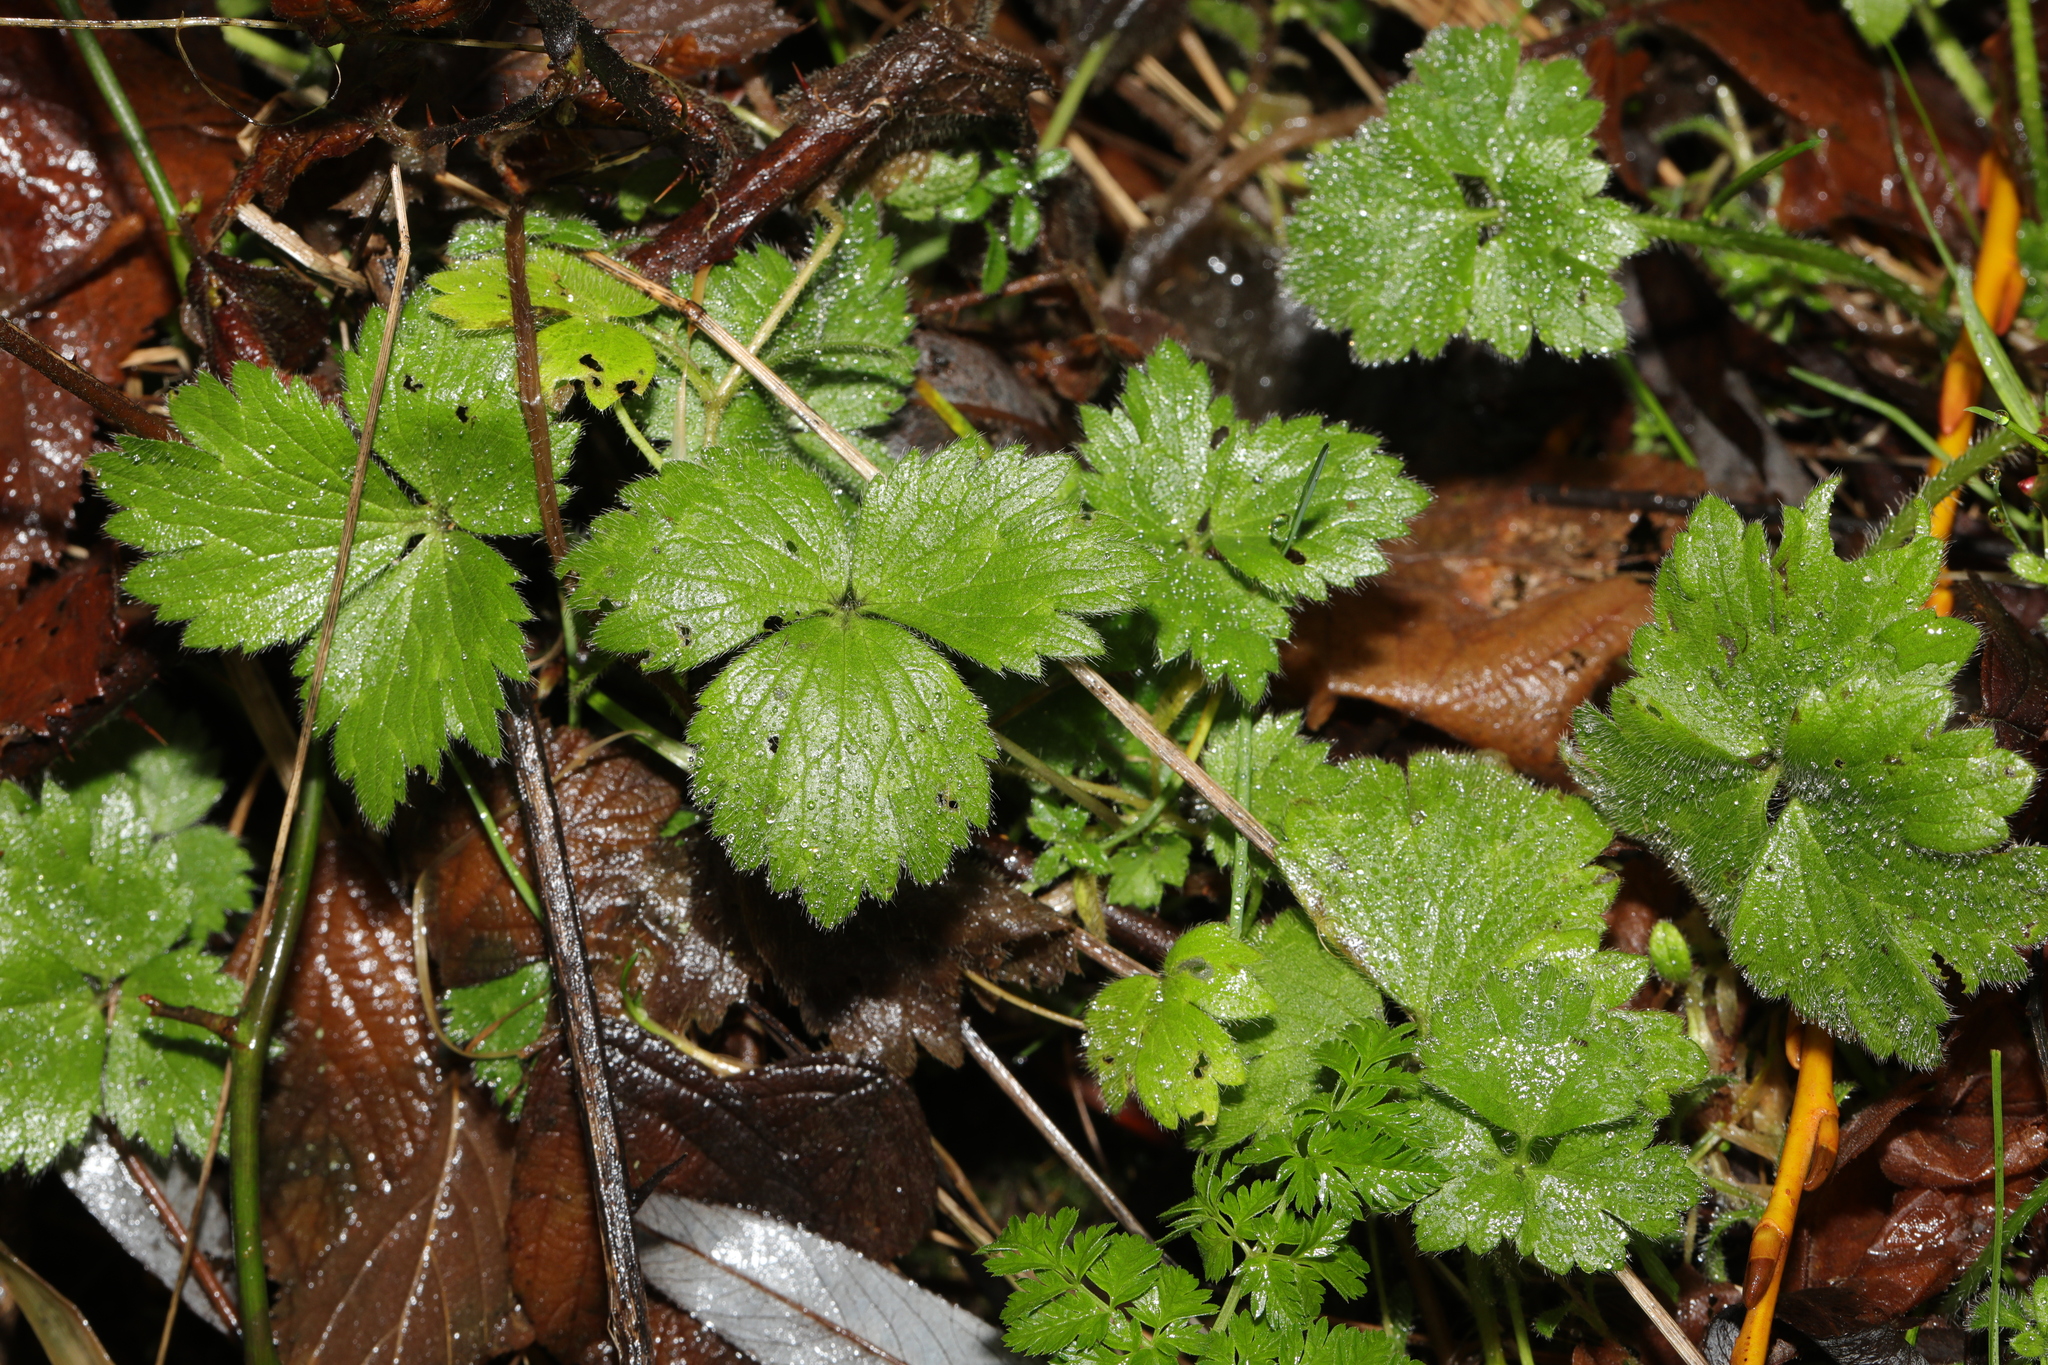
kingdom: Plantae
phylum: Tracheophyta
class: Magnoliopsida
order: Ranunculales
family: Ranunculaceae
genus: Ranunculus
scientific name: Ranunculus repens
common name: Creeping buttercup
